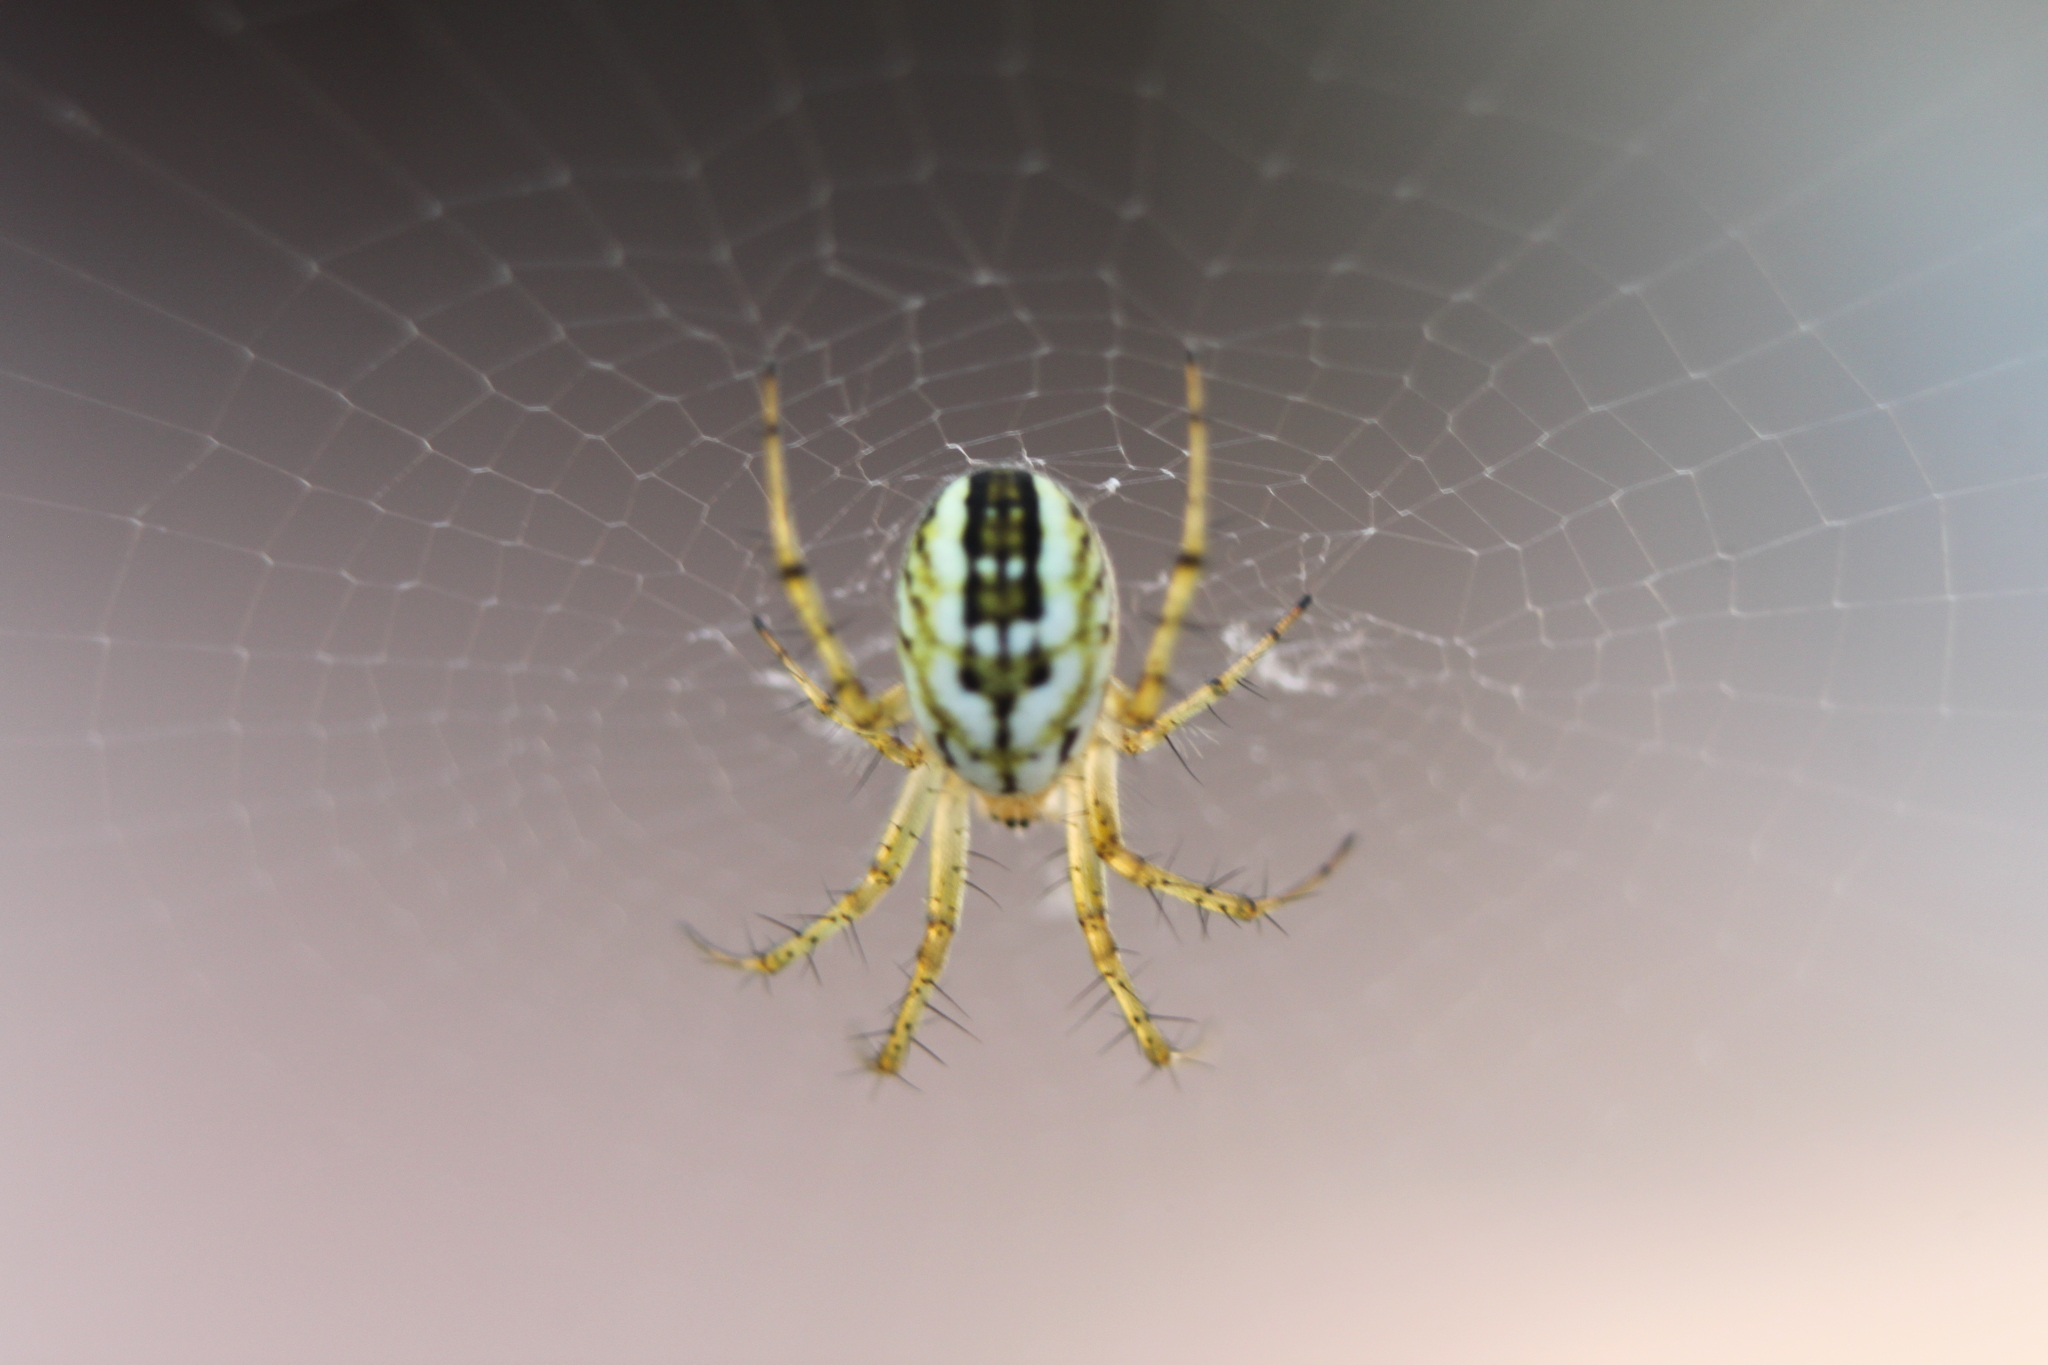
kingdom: Animalia
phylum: Arthropoda
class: Arachnida
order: Araneae
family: Araneidae
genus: Mangora
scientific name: Mangora acalypha
